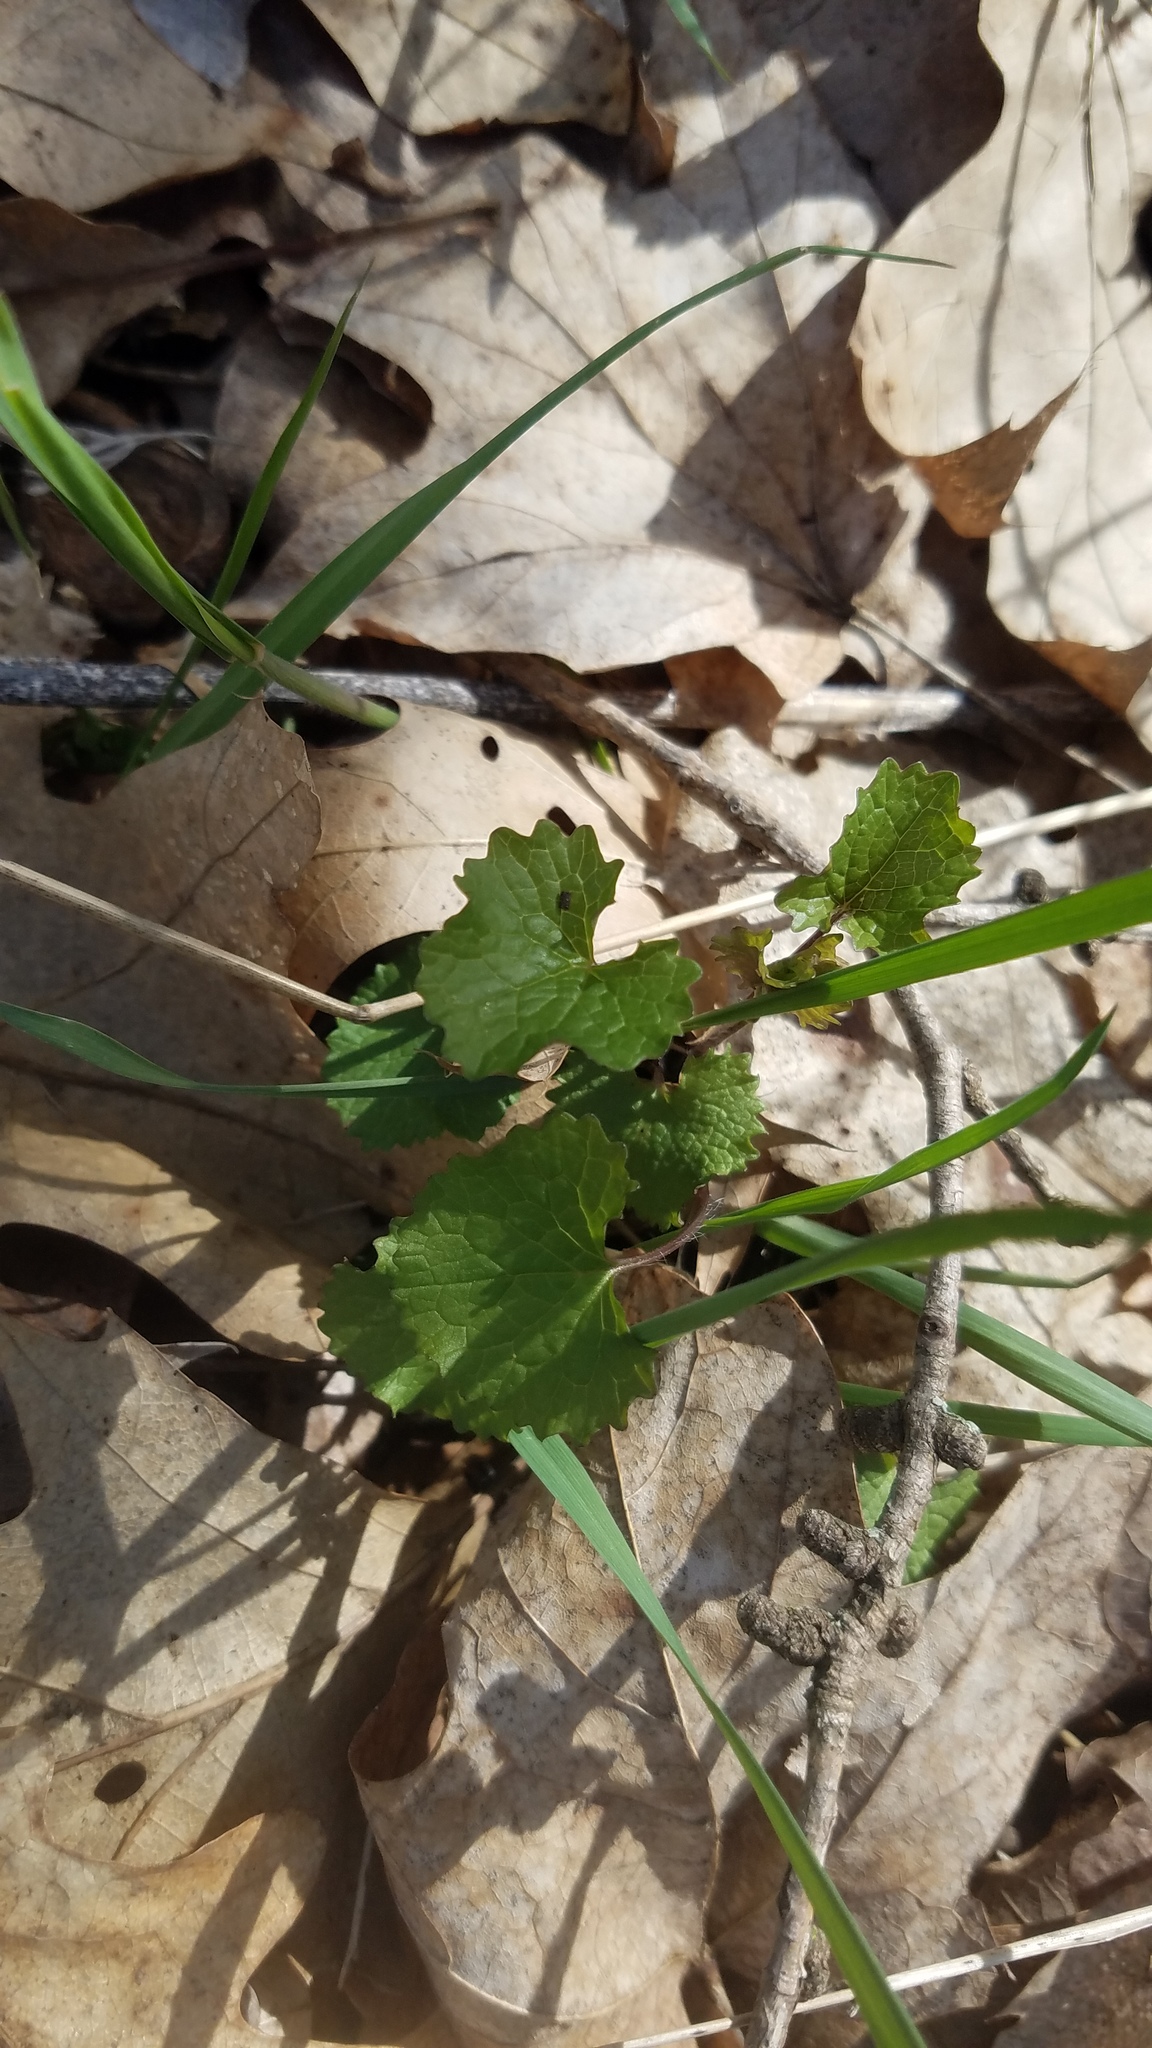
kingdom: Plantae
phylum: Tracheophyta
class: Magnoliopsida
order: Brassicales
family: Brassicaceae
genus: Alliaria
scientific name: Alliaria petiolata
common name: Garlic mustard
